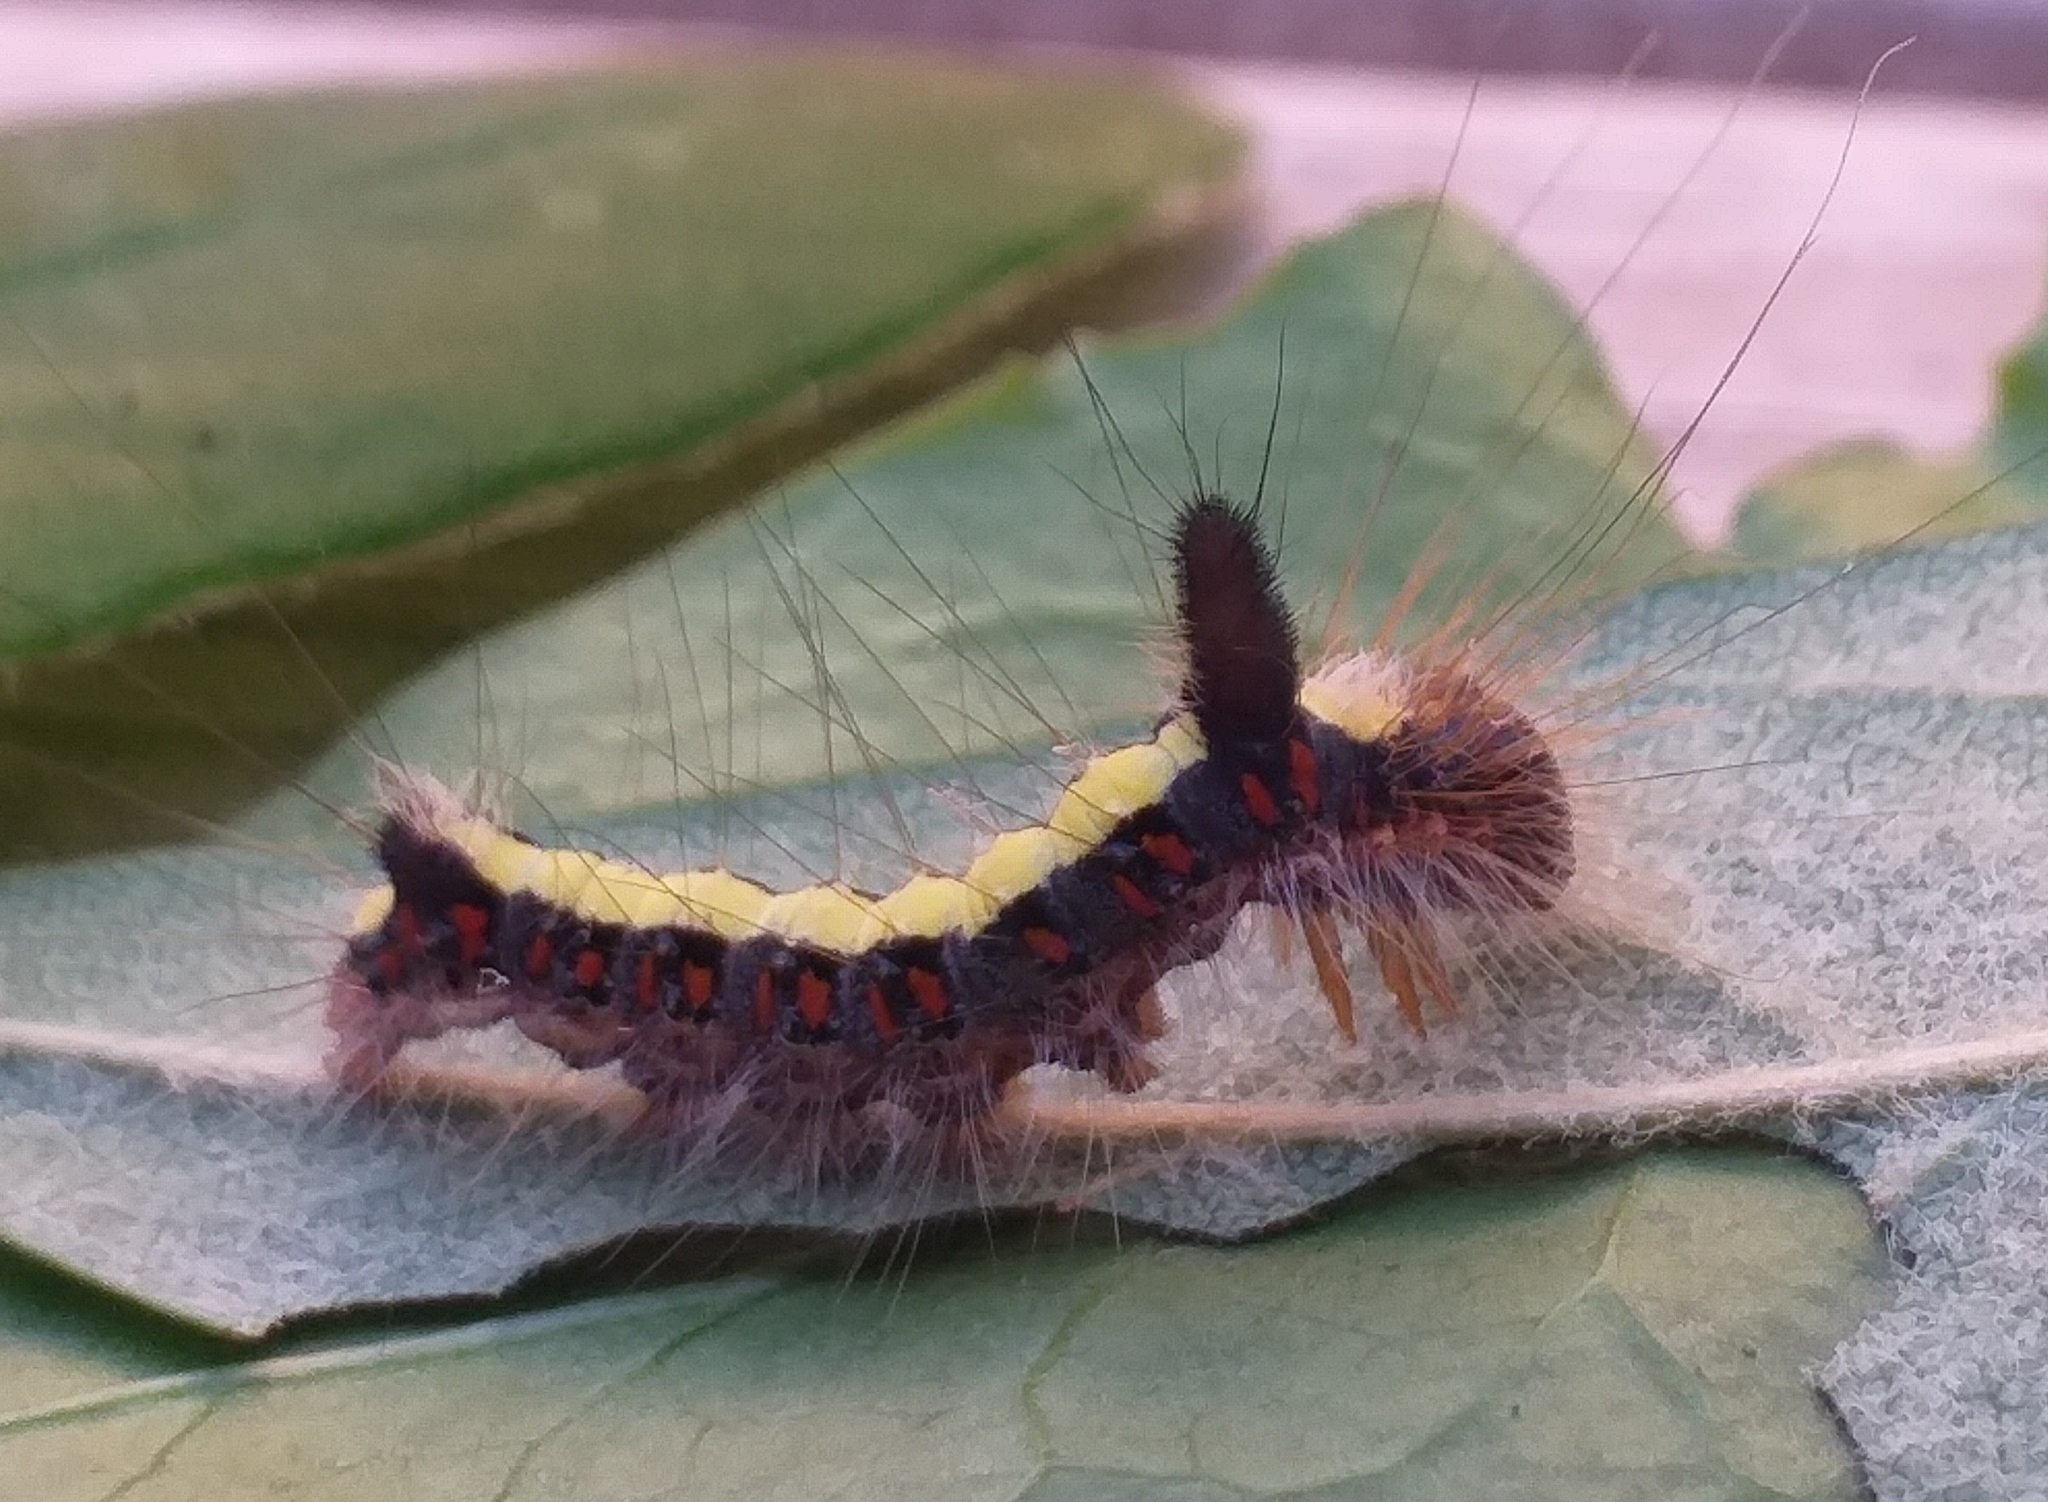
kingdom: Animalia
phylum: Arthropoda
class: Insecta
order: Lepidoptera
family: Noctuidae
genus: Acronicta
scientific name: Acronicta psi
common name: Grey dagger
